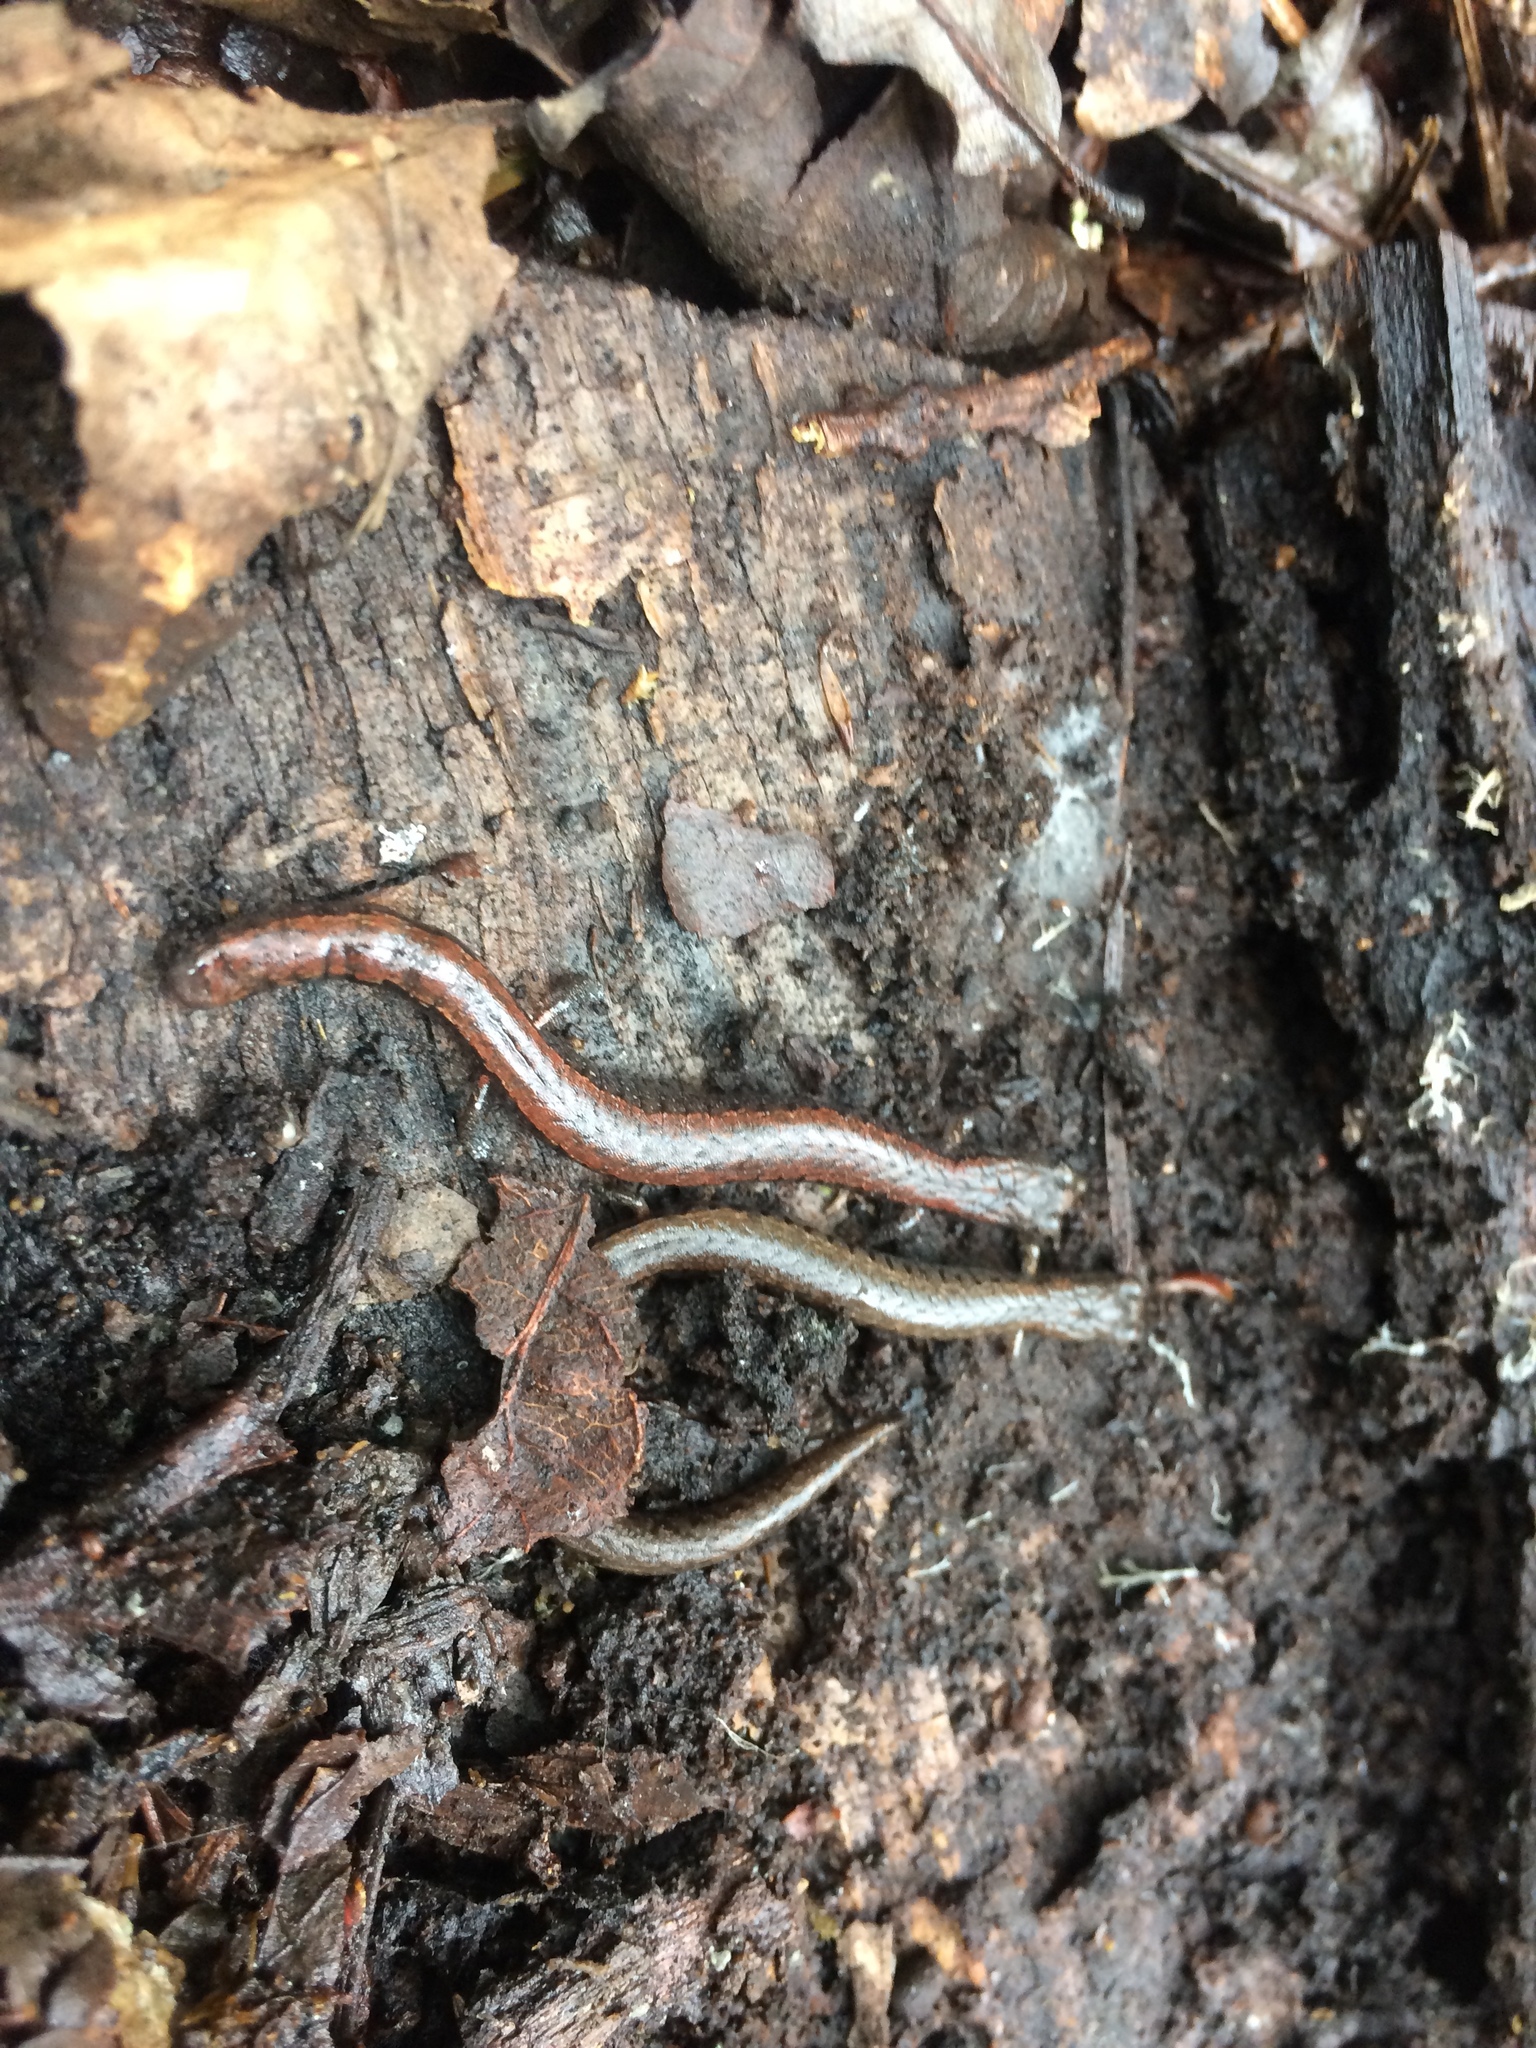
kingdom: Animalia
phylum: Chordata
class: Amphibia
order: Caudata
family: Plethodontidae
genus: Batrachoseps
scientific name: Batrachoseps attenuatus
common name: California slender salamander
